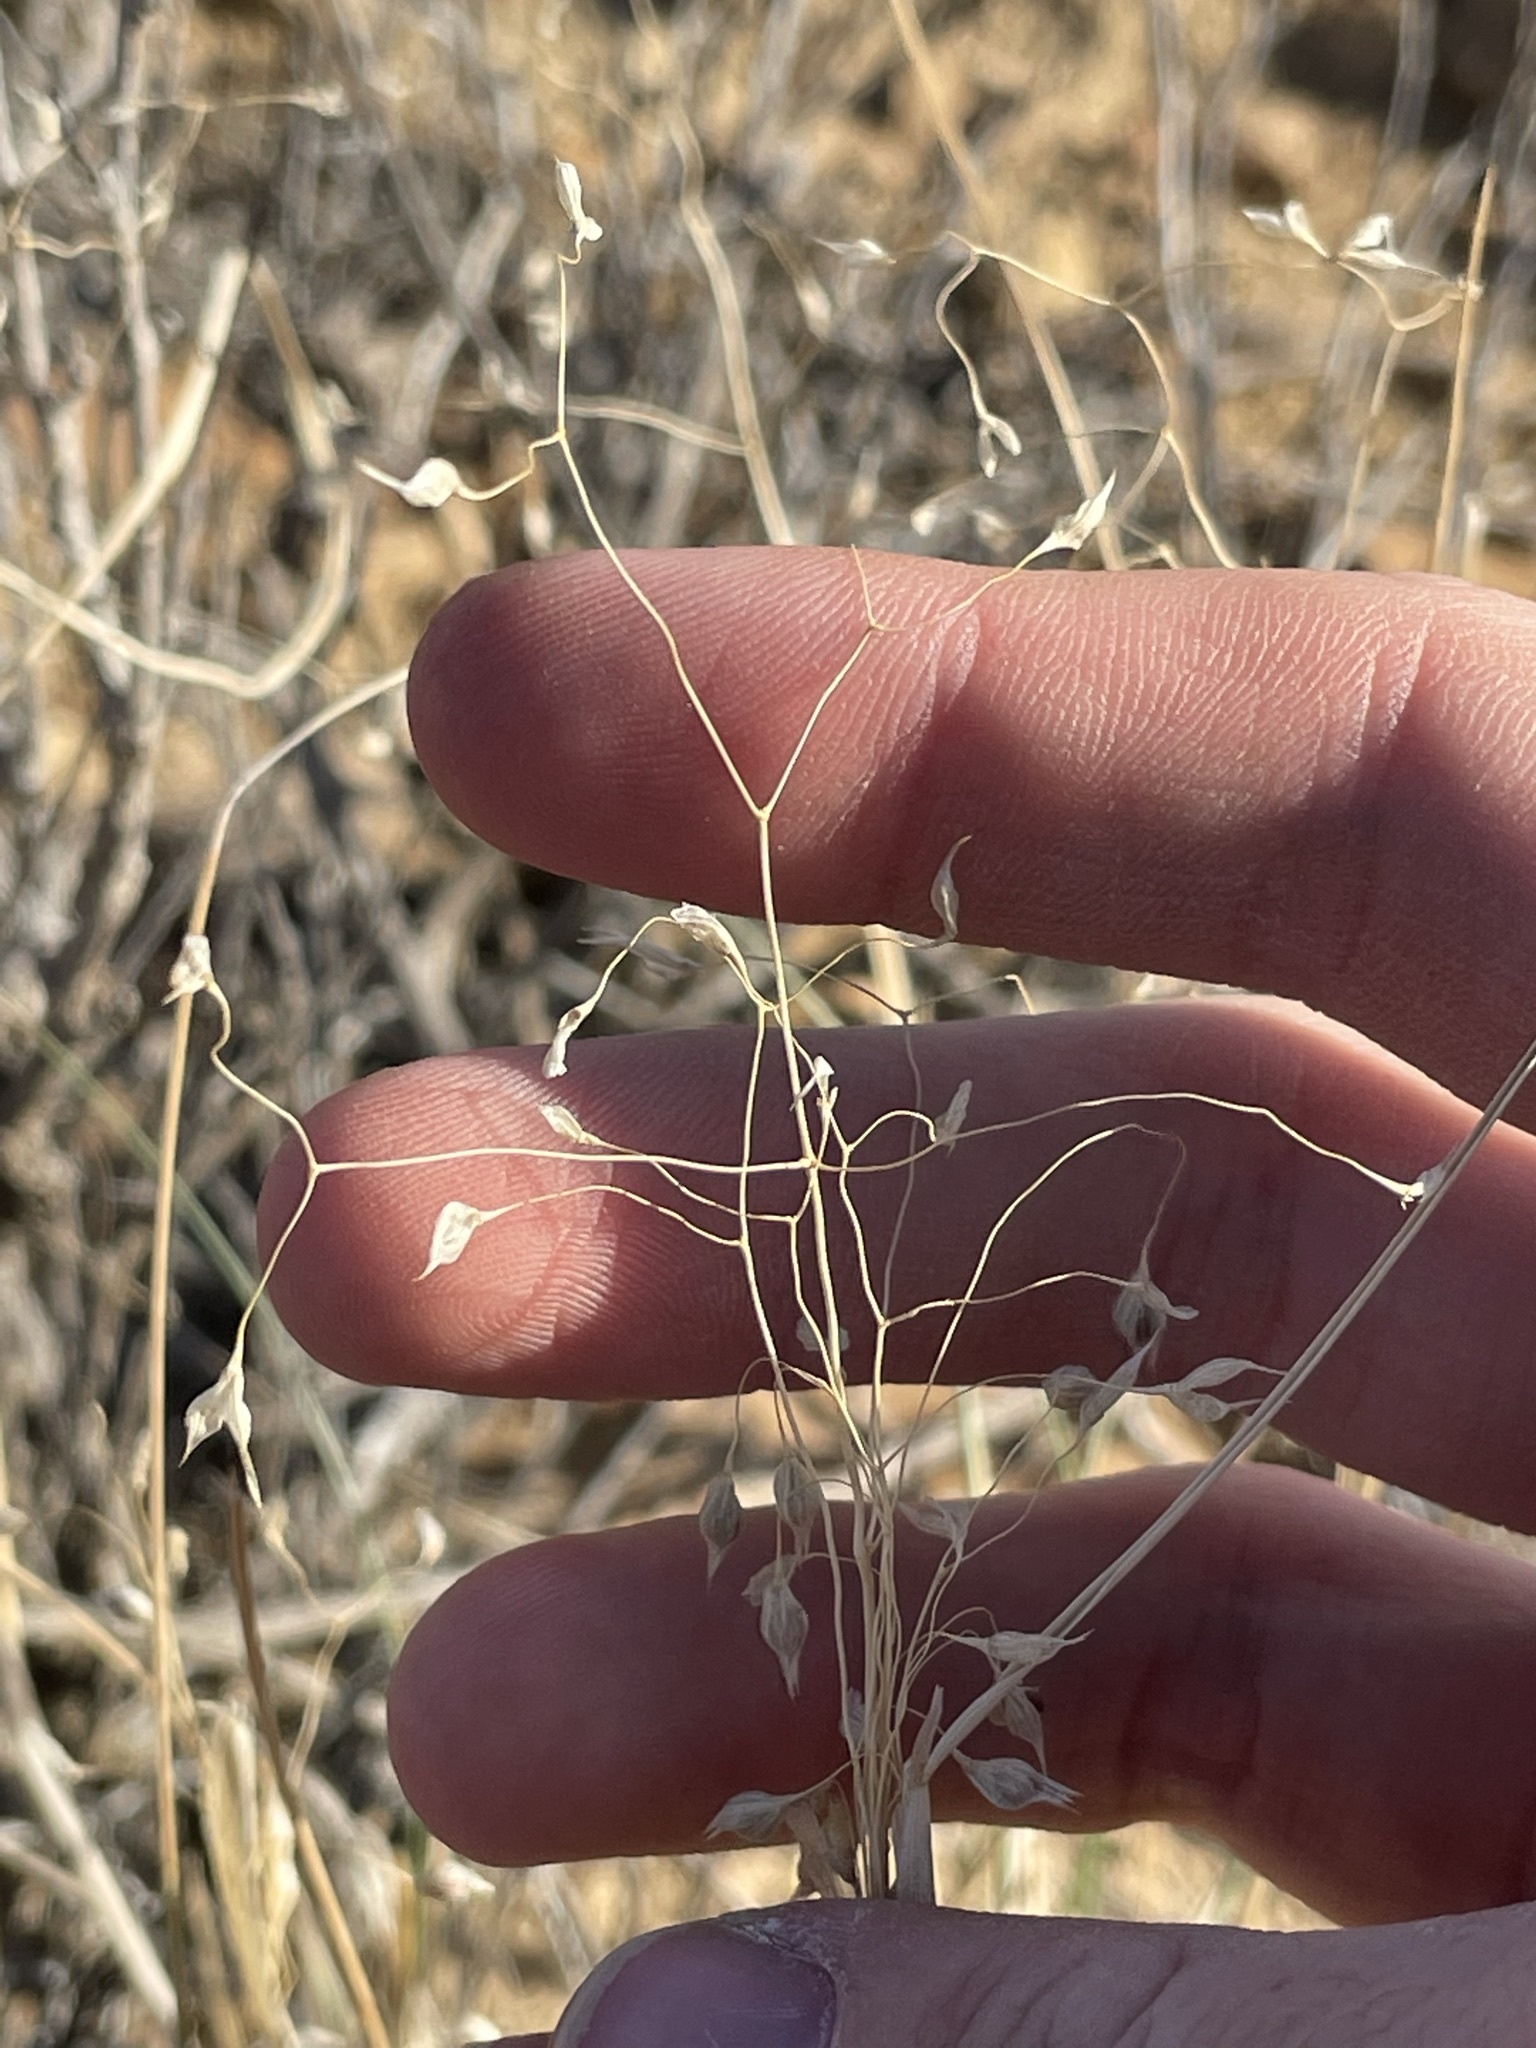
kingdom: Plantae
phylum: Tracheophyta
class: Liliopsida
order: Poales
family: Poaceae
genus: Eriocoma
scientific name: Eriocoma hymenoides
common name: Indian mountain ricegrass
